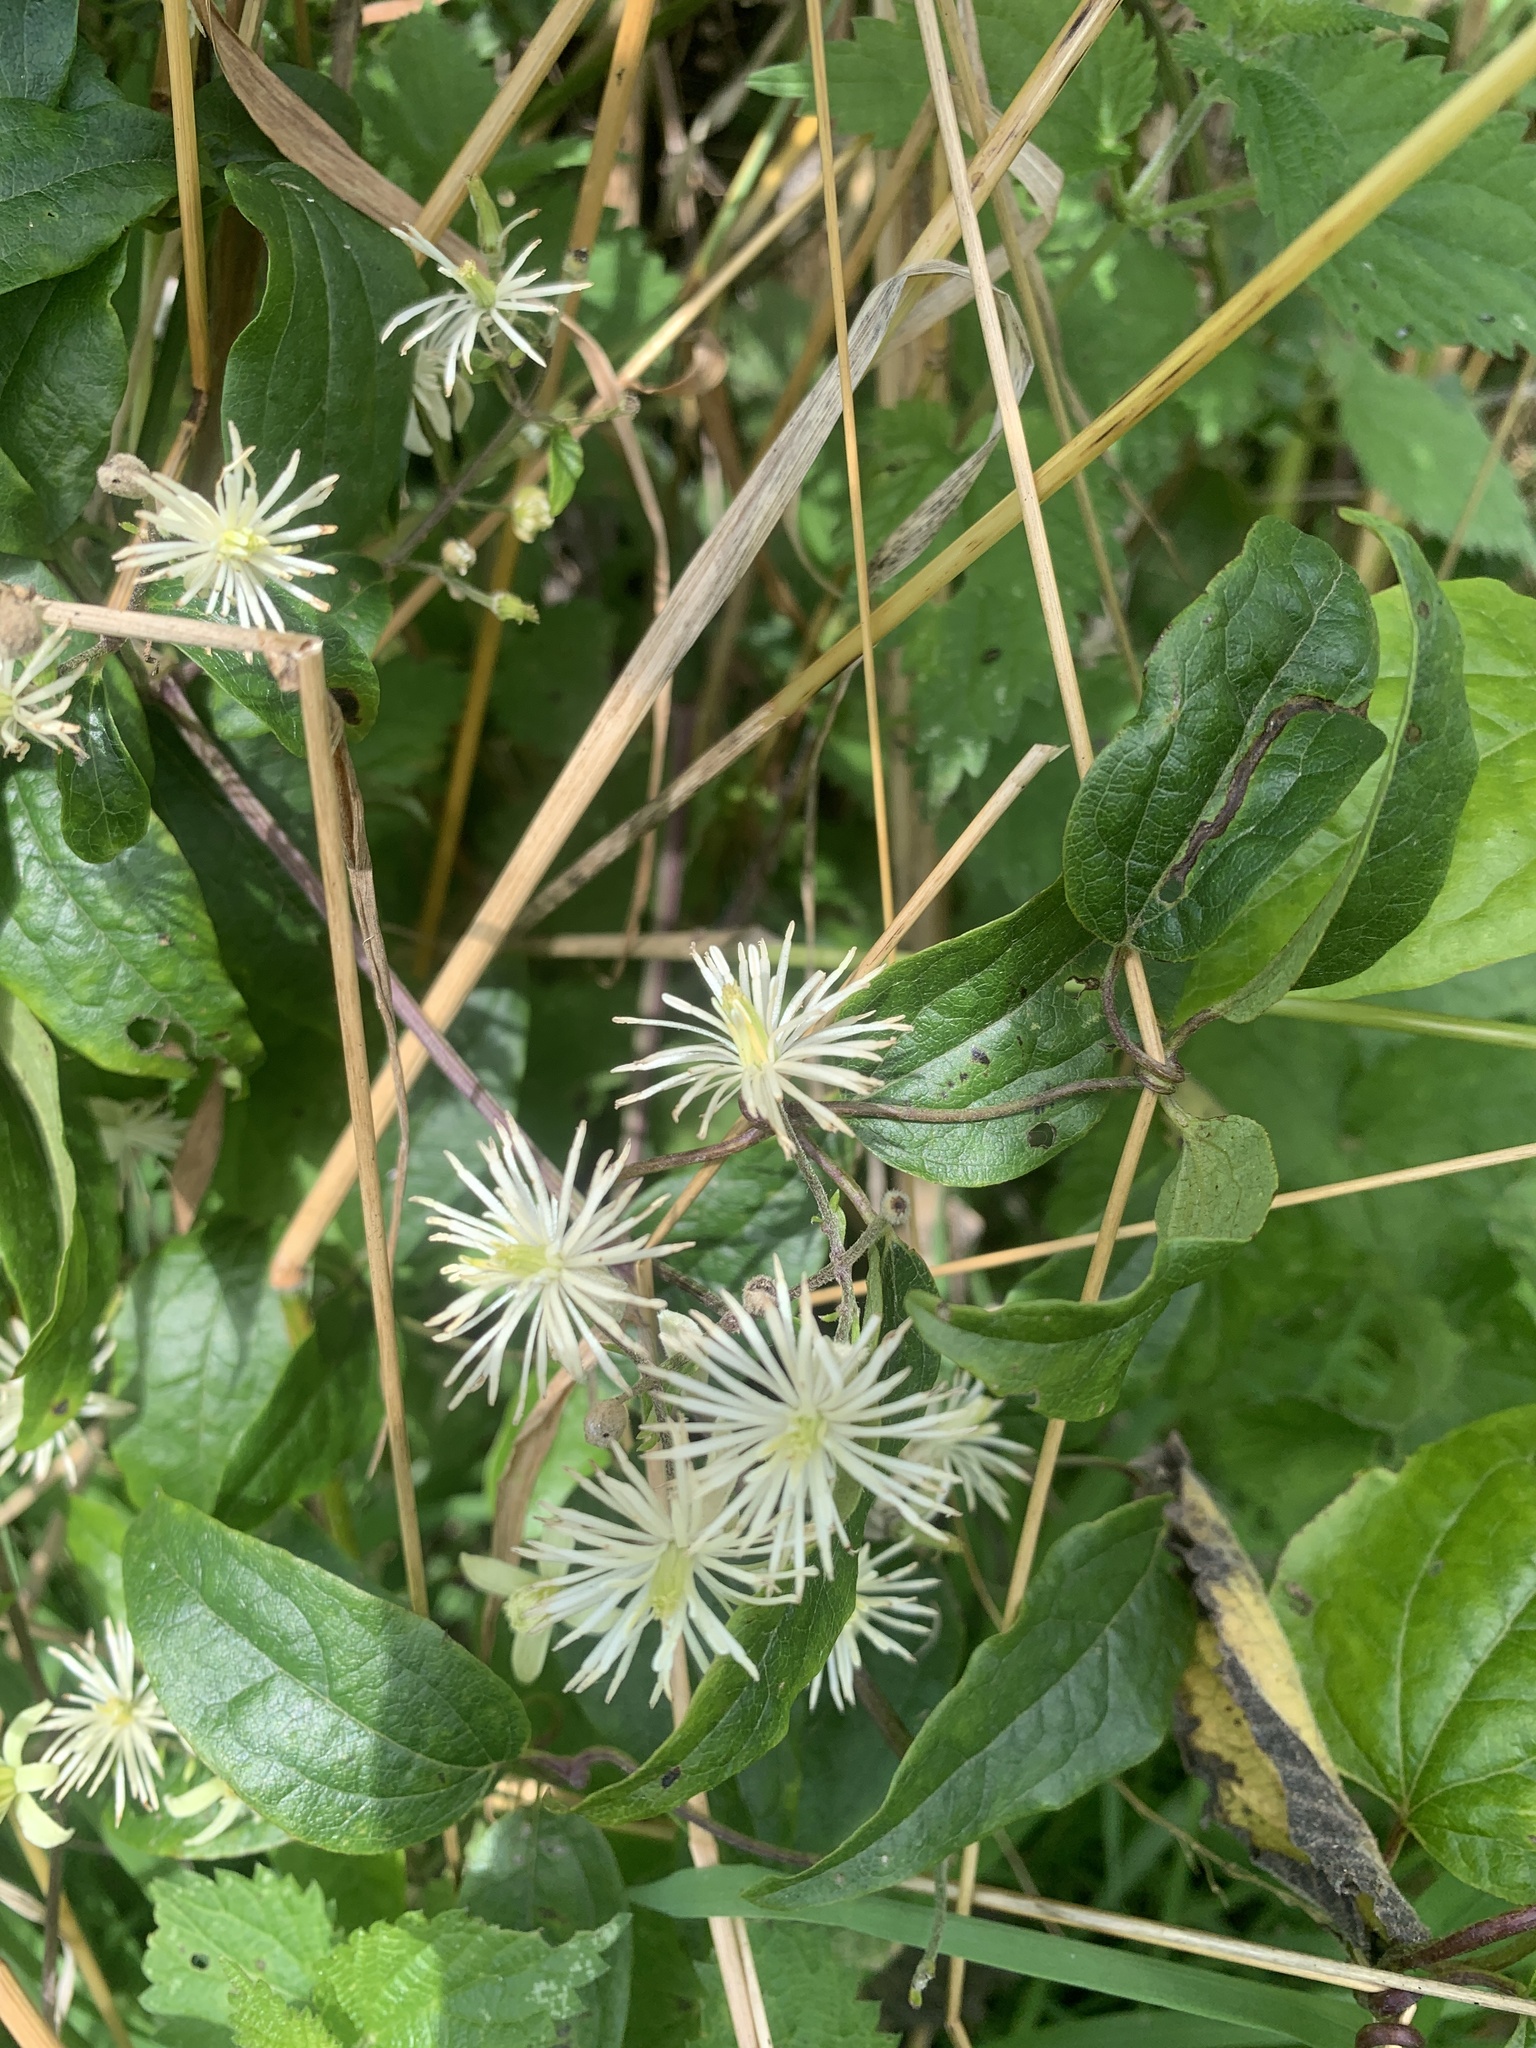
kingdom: Plantae
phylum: Tracheophyta
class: Magnoliopsida
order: Ranunculales
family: Ranunculaceae
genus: Clematis
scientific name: Clematis vitalba
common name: Evergreen clematis
